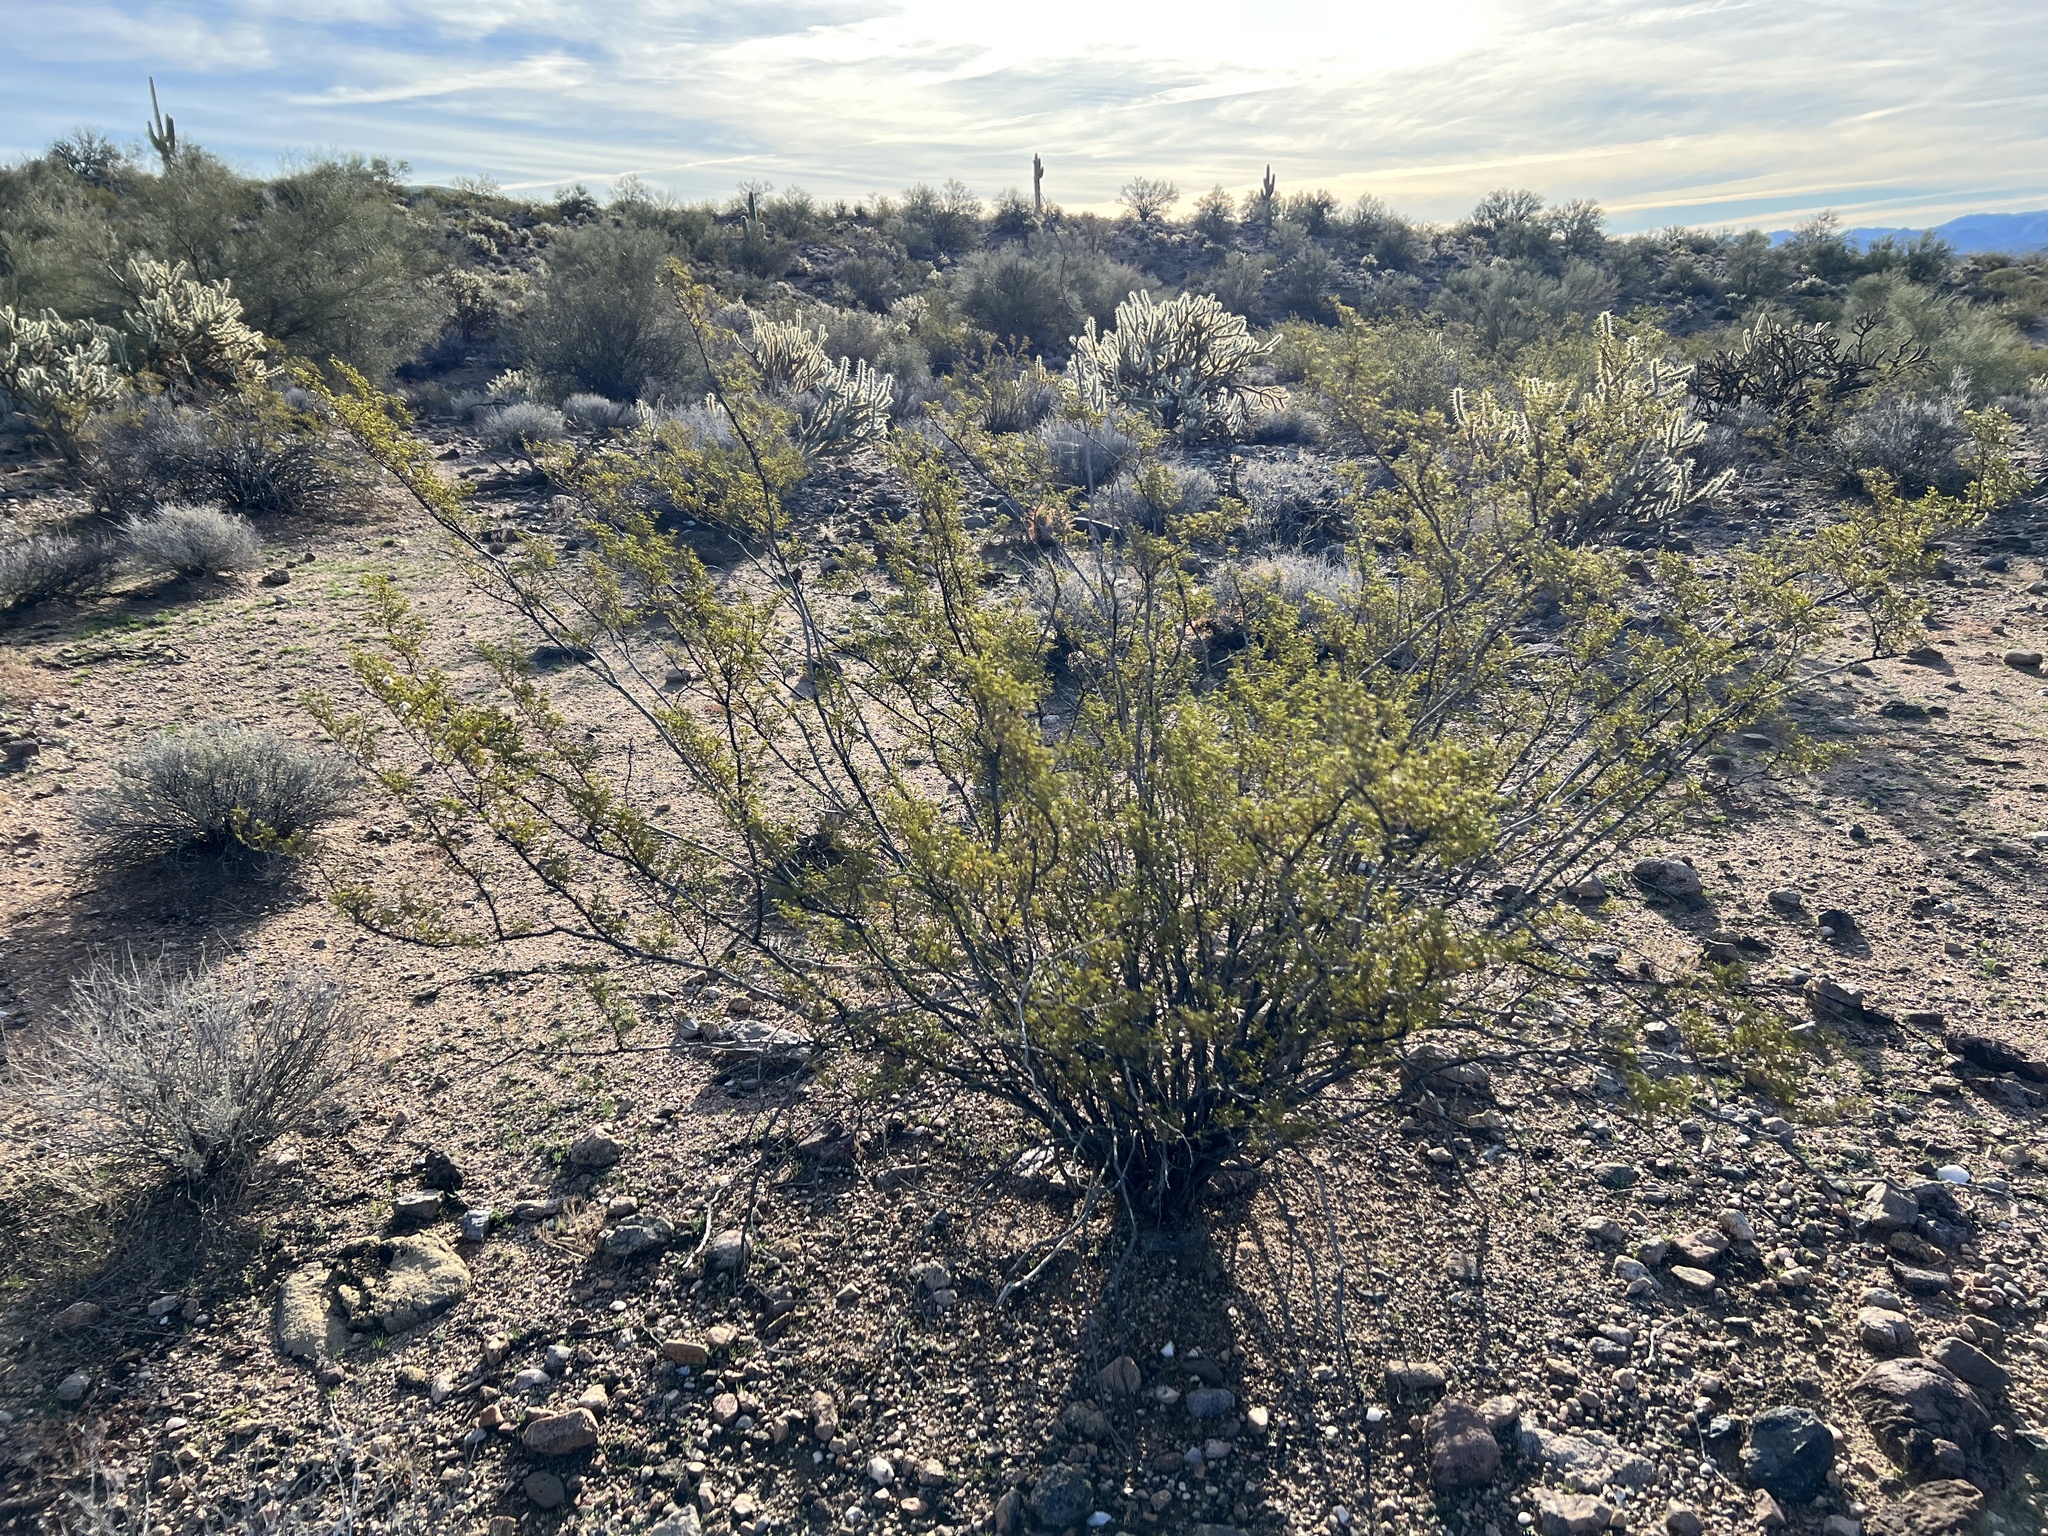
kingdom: Plantae
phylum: Tracheophyta
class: Magnoliopsida
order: Zygophyllales
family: Zygophyllaceae
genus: Larrea
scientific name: Larrea tridentata
